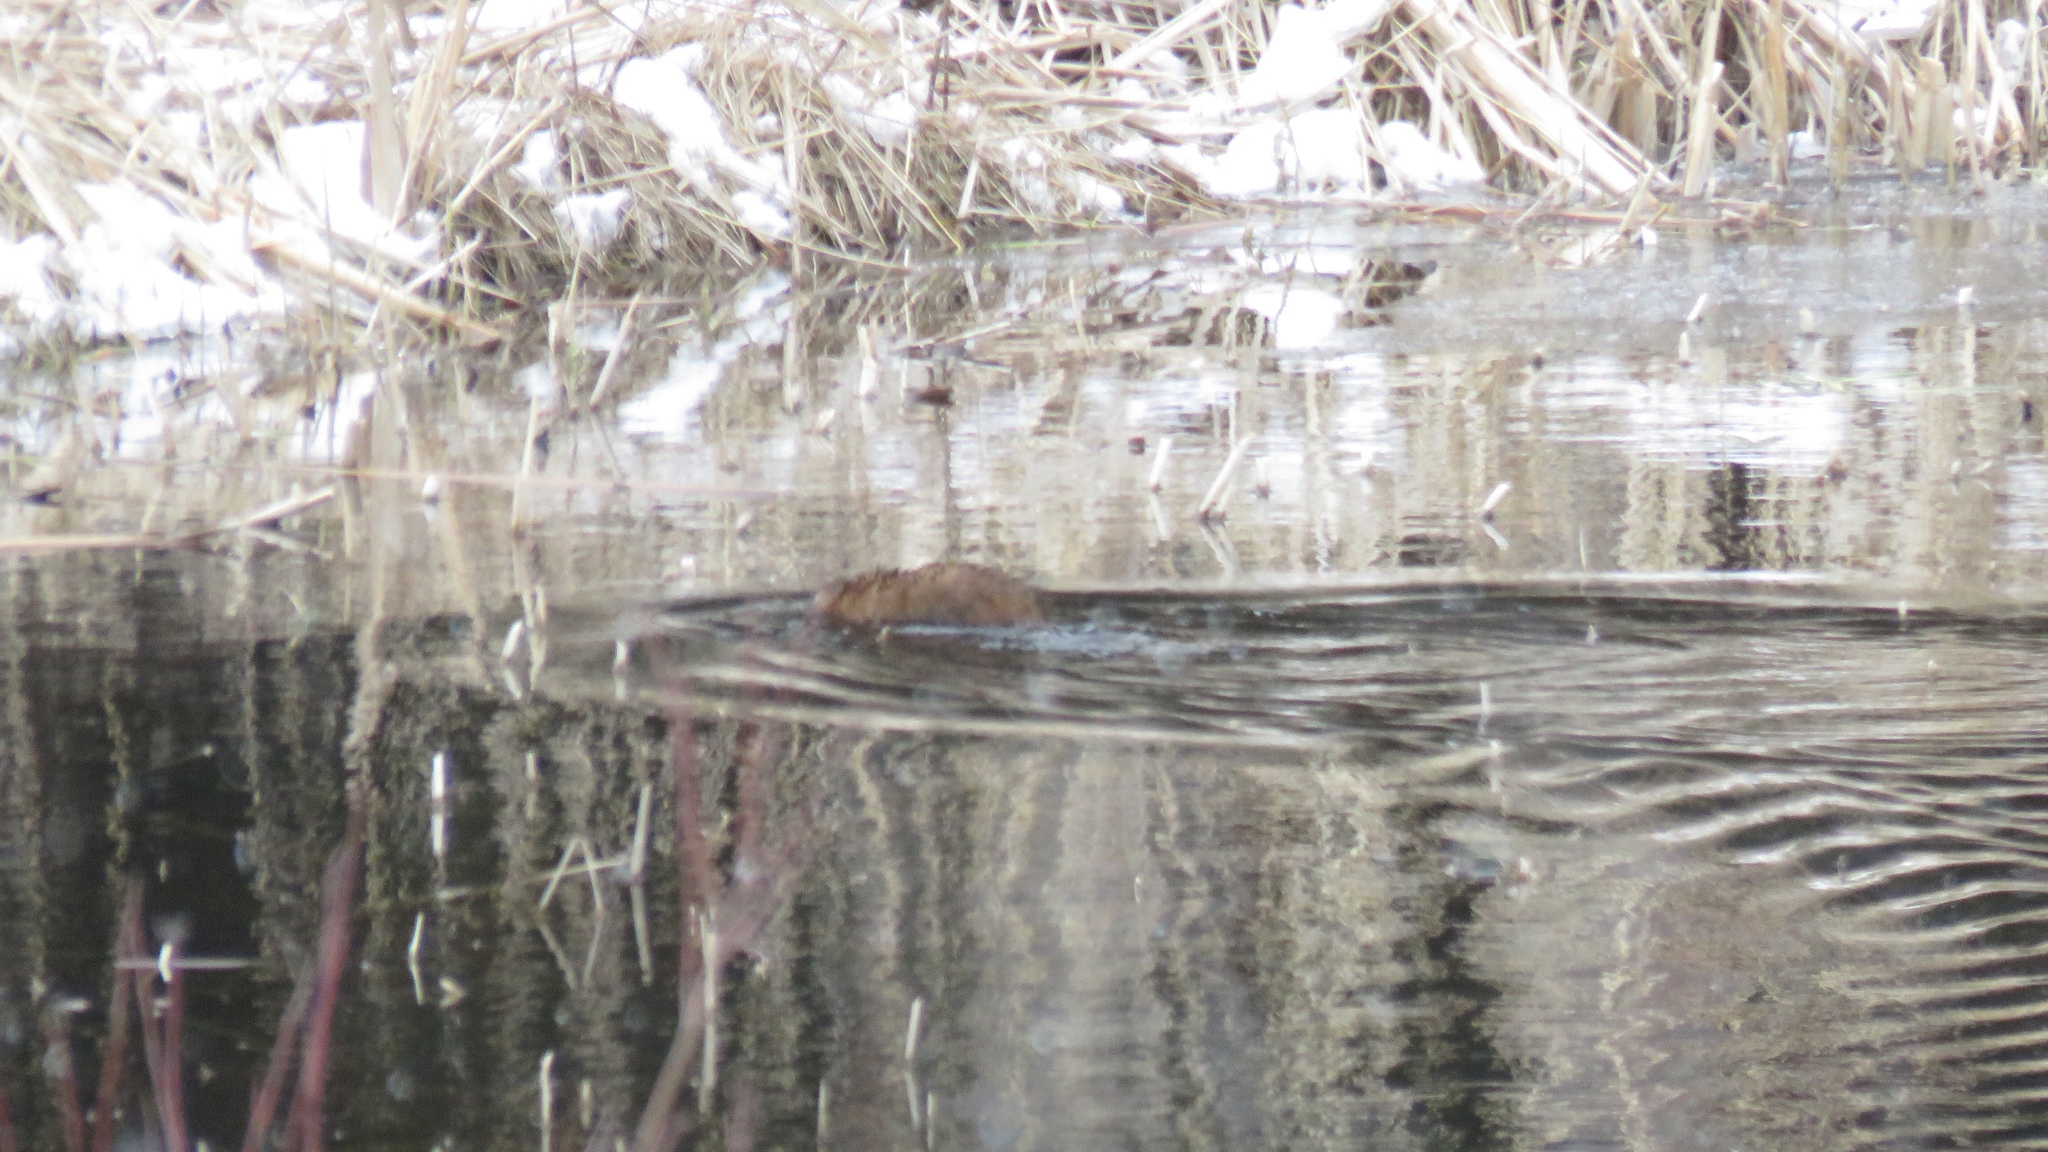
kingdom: Animalia
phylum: Chordata
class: Mammalia
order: Rodentia
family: Cricetidae
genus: Ondatra
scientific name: Ondatra zibethicus
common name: Muskrat
